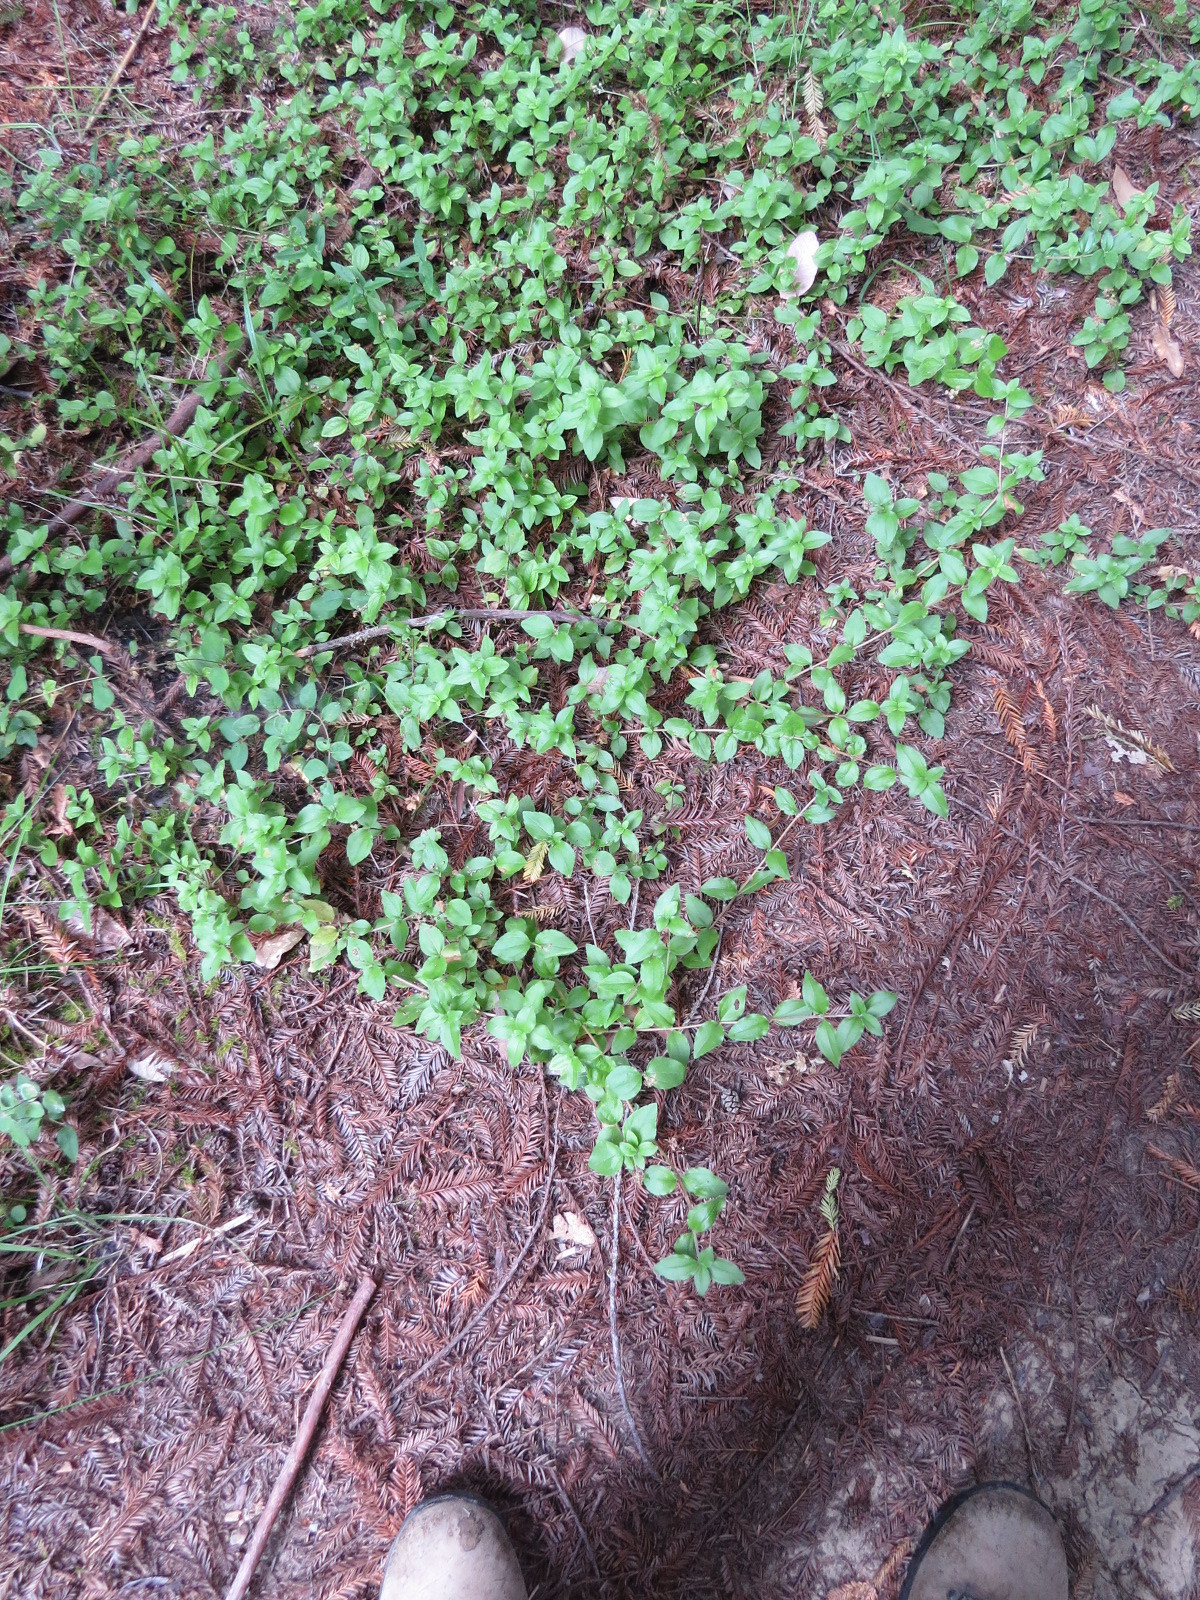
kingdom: Plantae
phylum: Tracheophyta
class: Magnoliopsida
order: Cornales
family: Hydrangeaceae
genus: Whipplea
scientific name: Whipplea modesta
